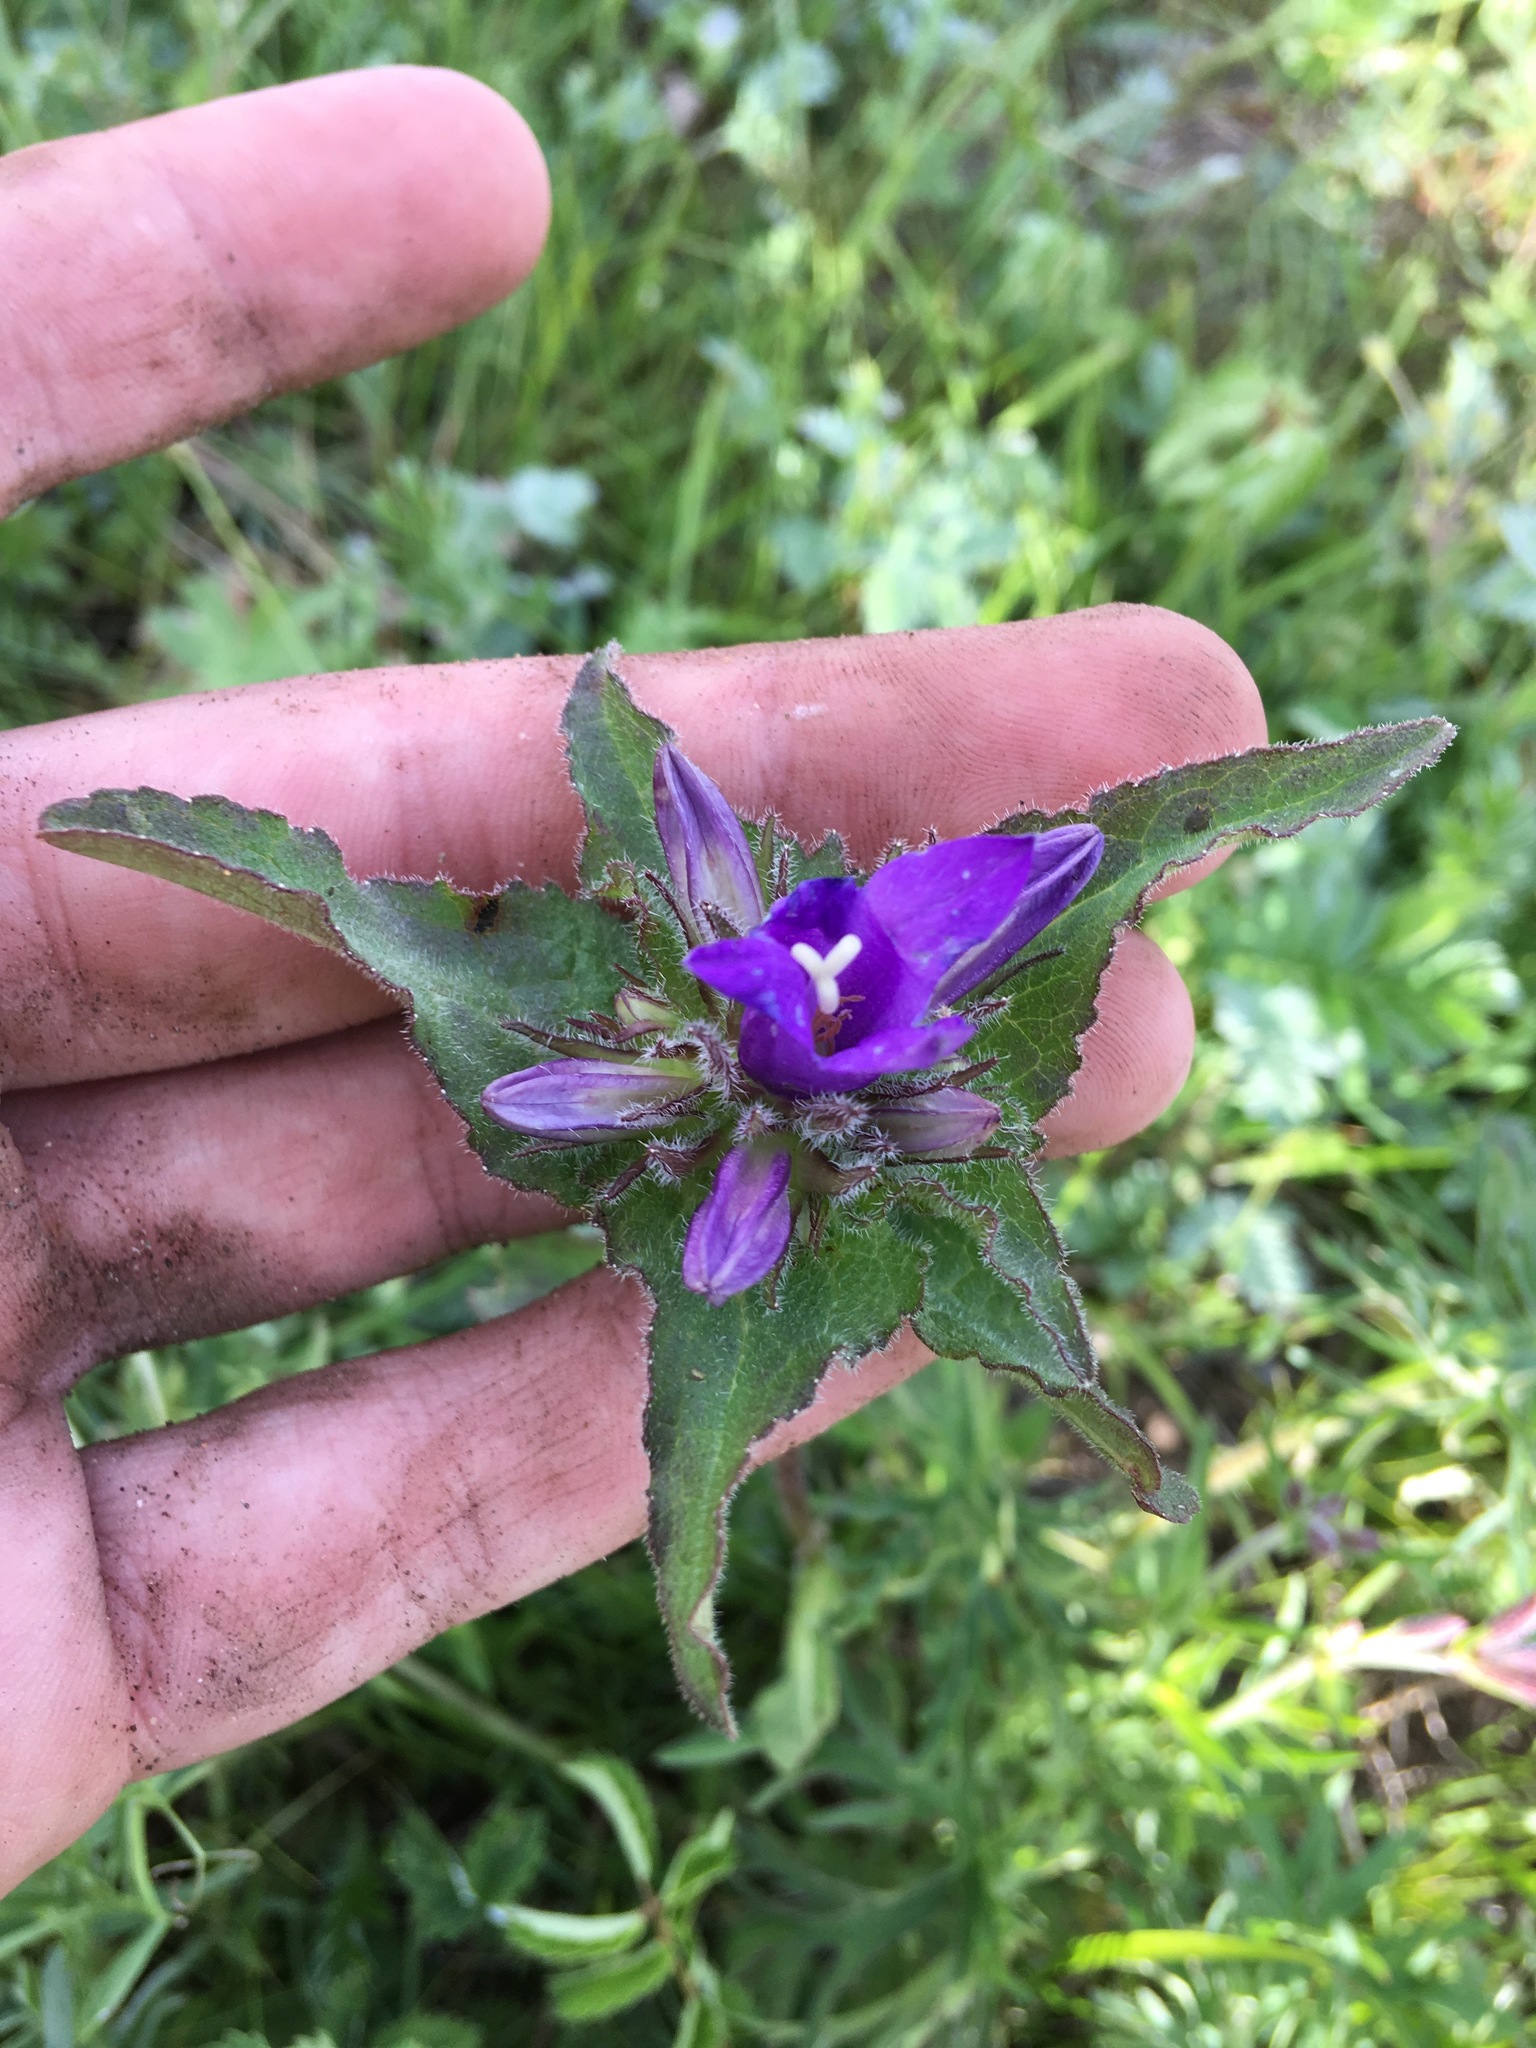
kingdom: Plantae
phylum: Tracheophyta
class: Magnoliopsida
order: Asterales
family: Campanulaceae
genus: Campanula
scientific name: Campanula glomerata
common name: Clustered bellflower
